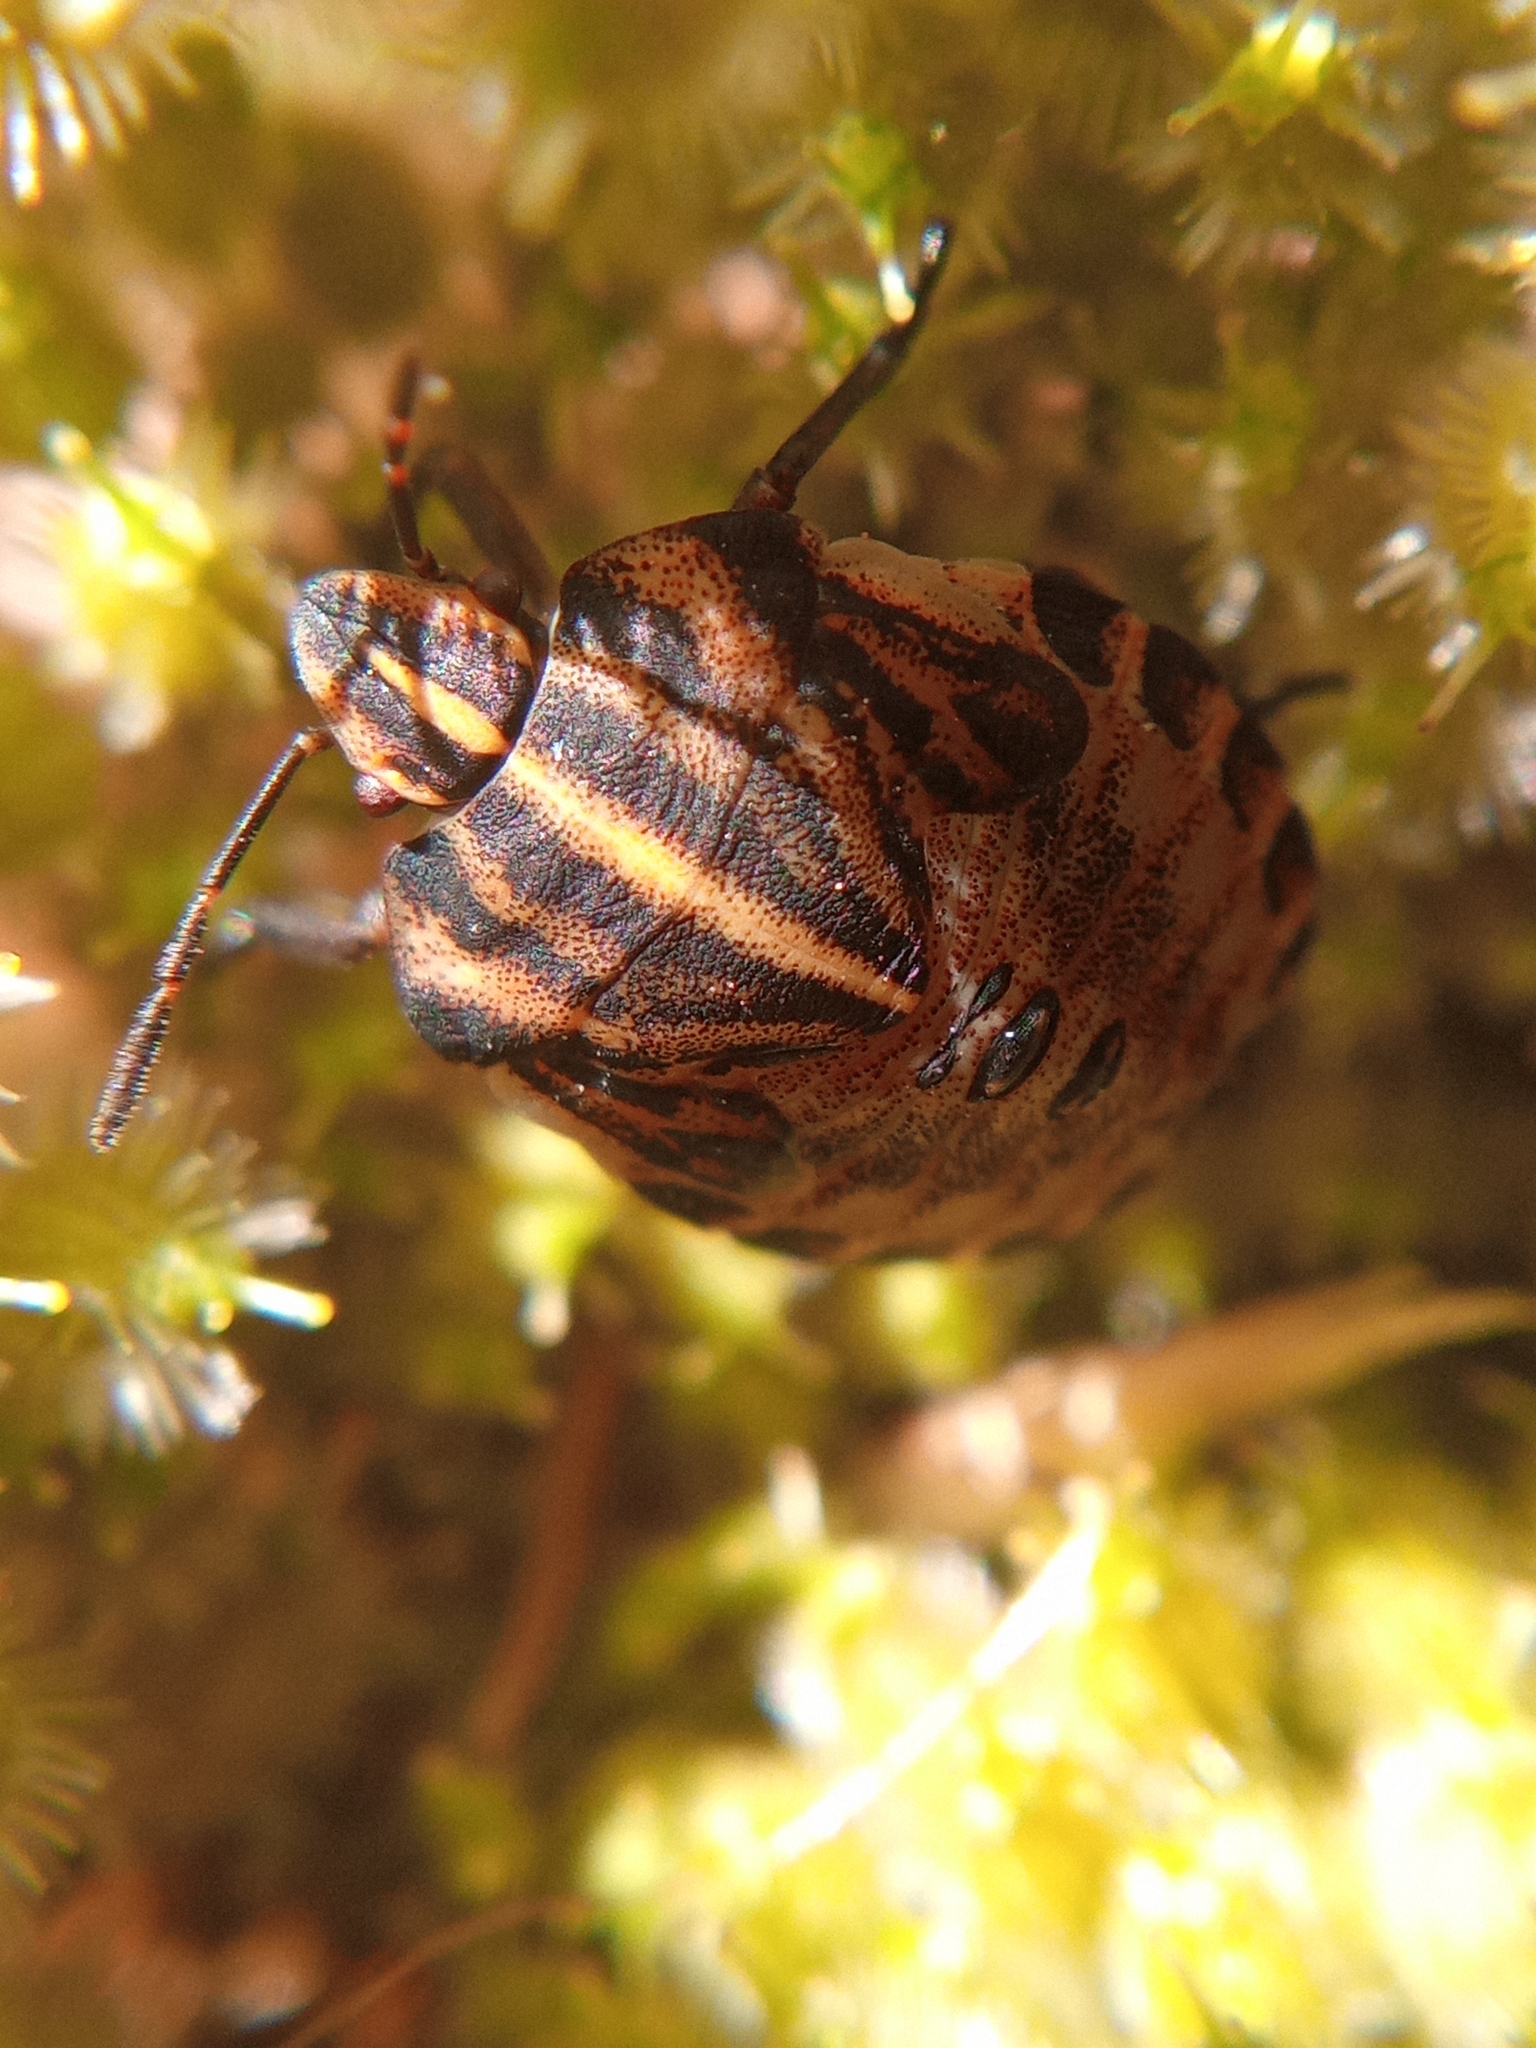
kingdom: Animalia
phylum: Arthropoda
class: Insecta
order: Hemiptera
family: Pentatomidae
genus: Graphosoma
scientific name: Graphosoma italicum
